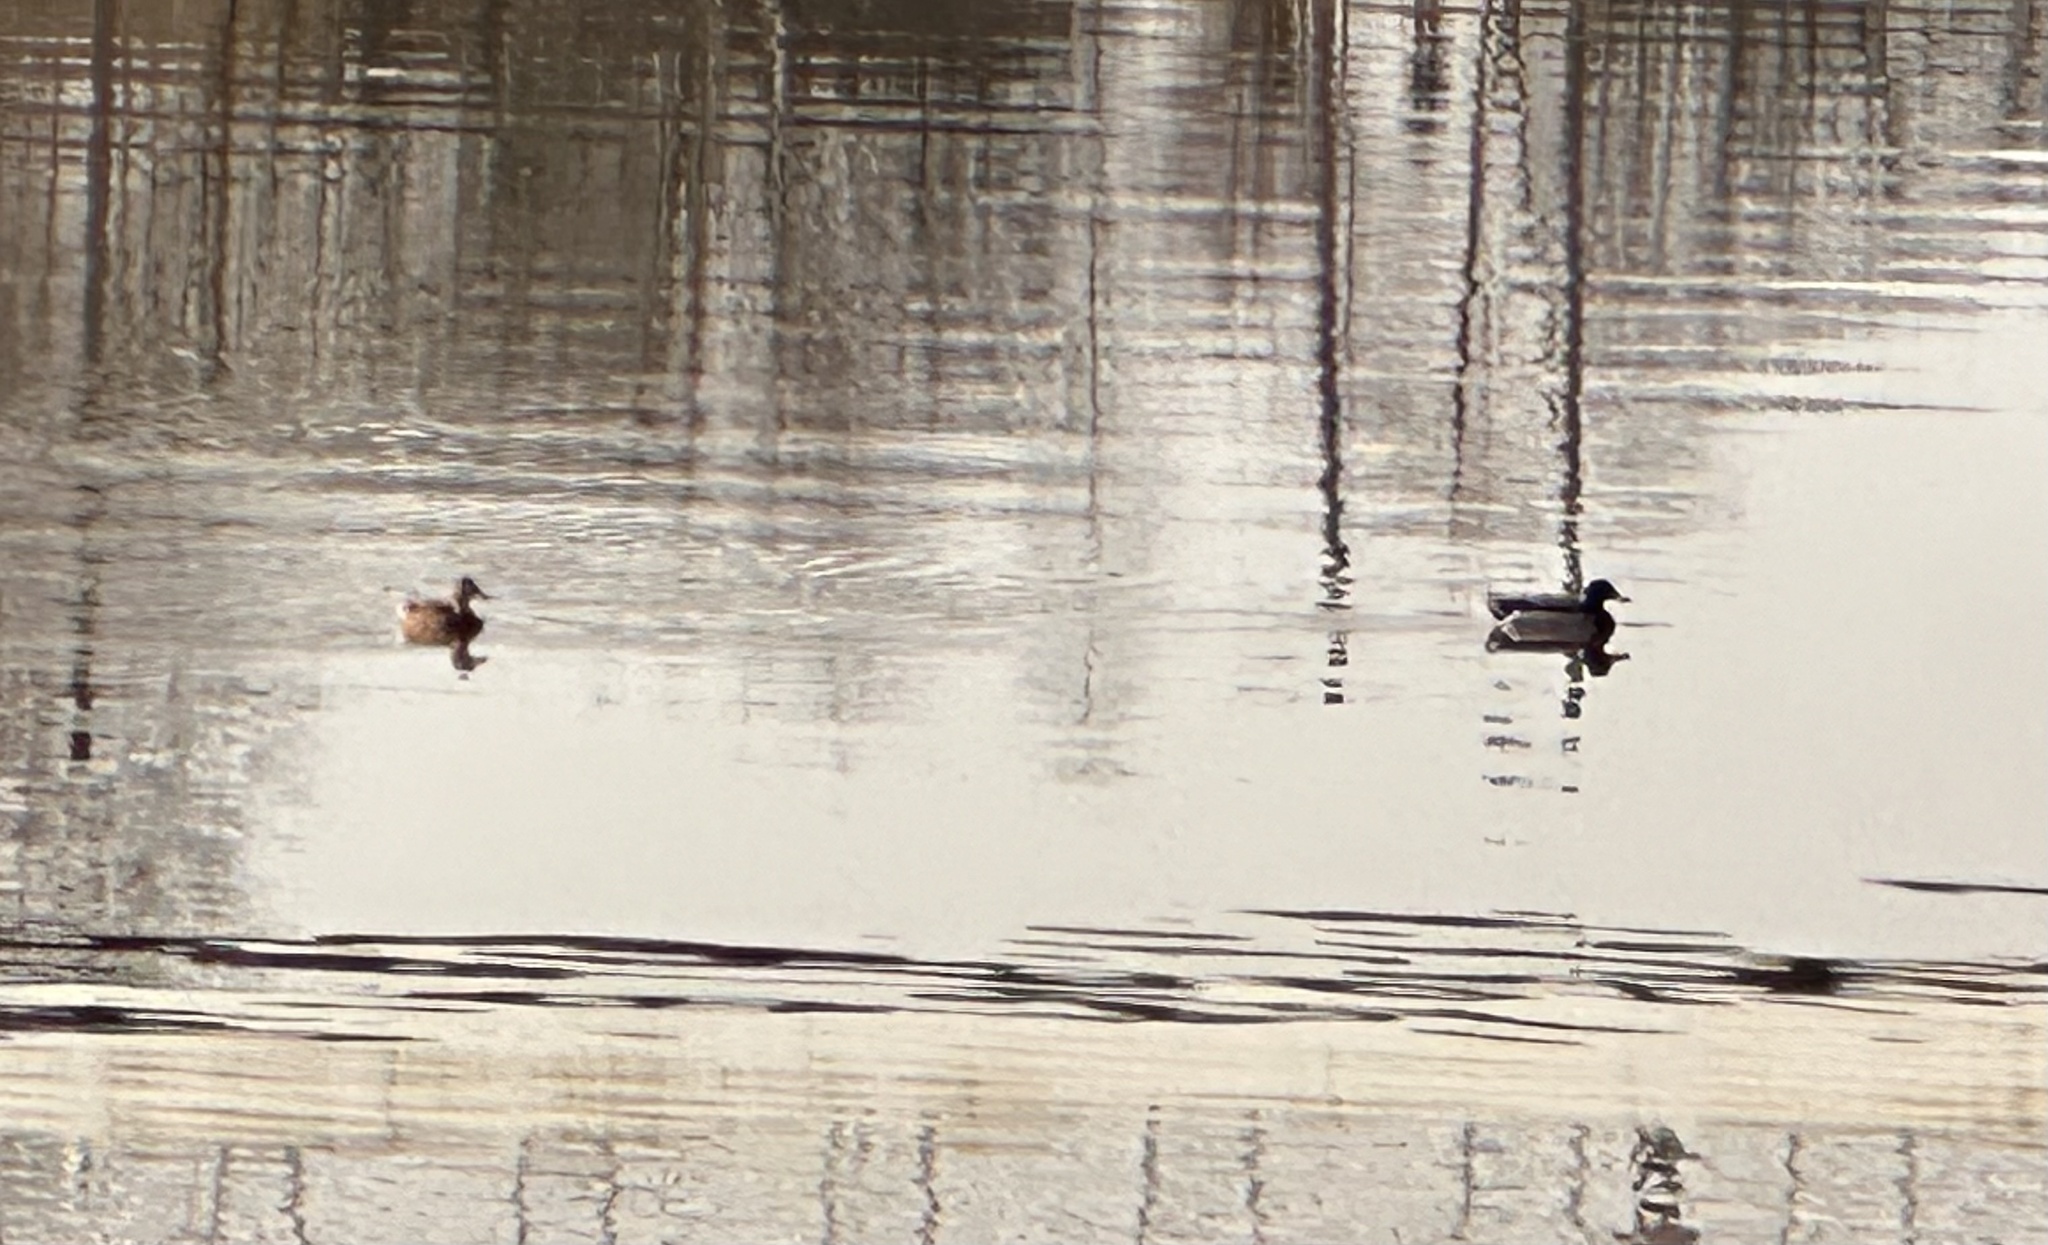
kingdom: Animalia
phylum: Chordata
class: Aves
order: Anseriformes
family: Anatidae
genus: Anas
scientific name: Anas platyrhynchos
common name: Mallard
